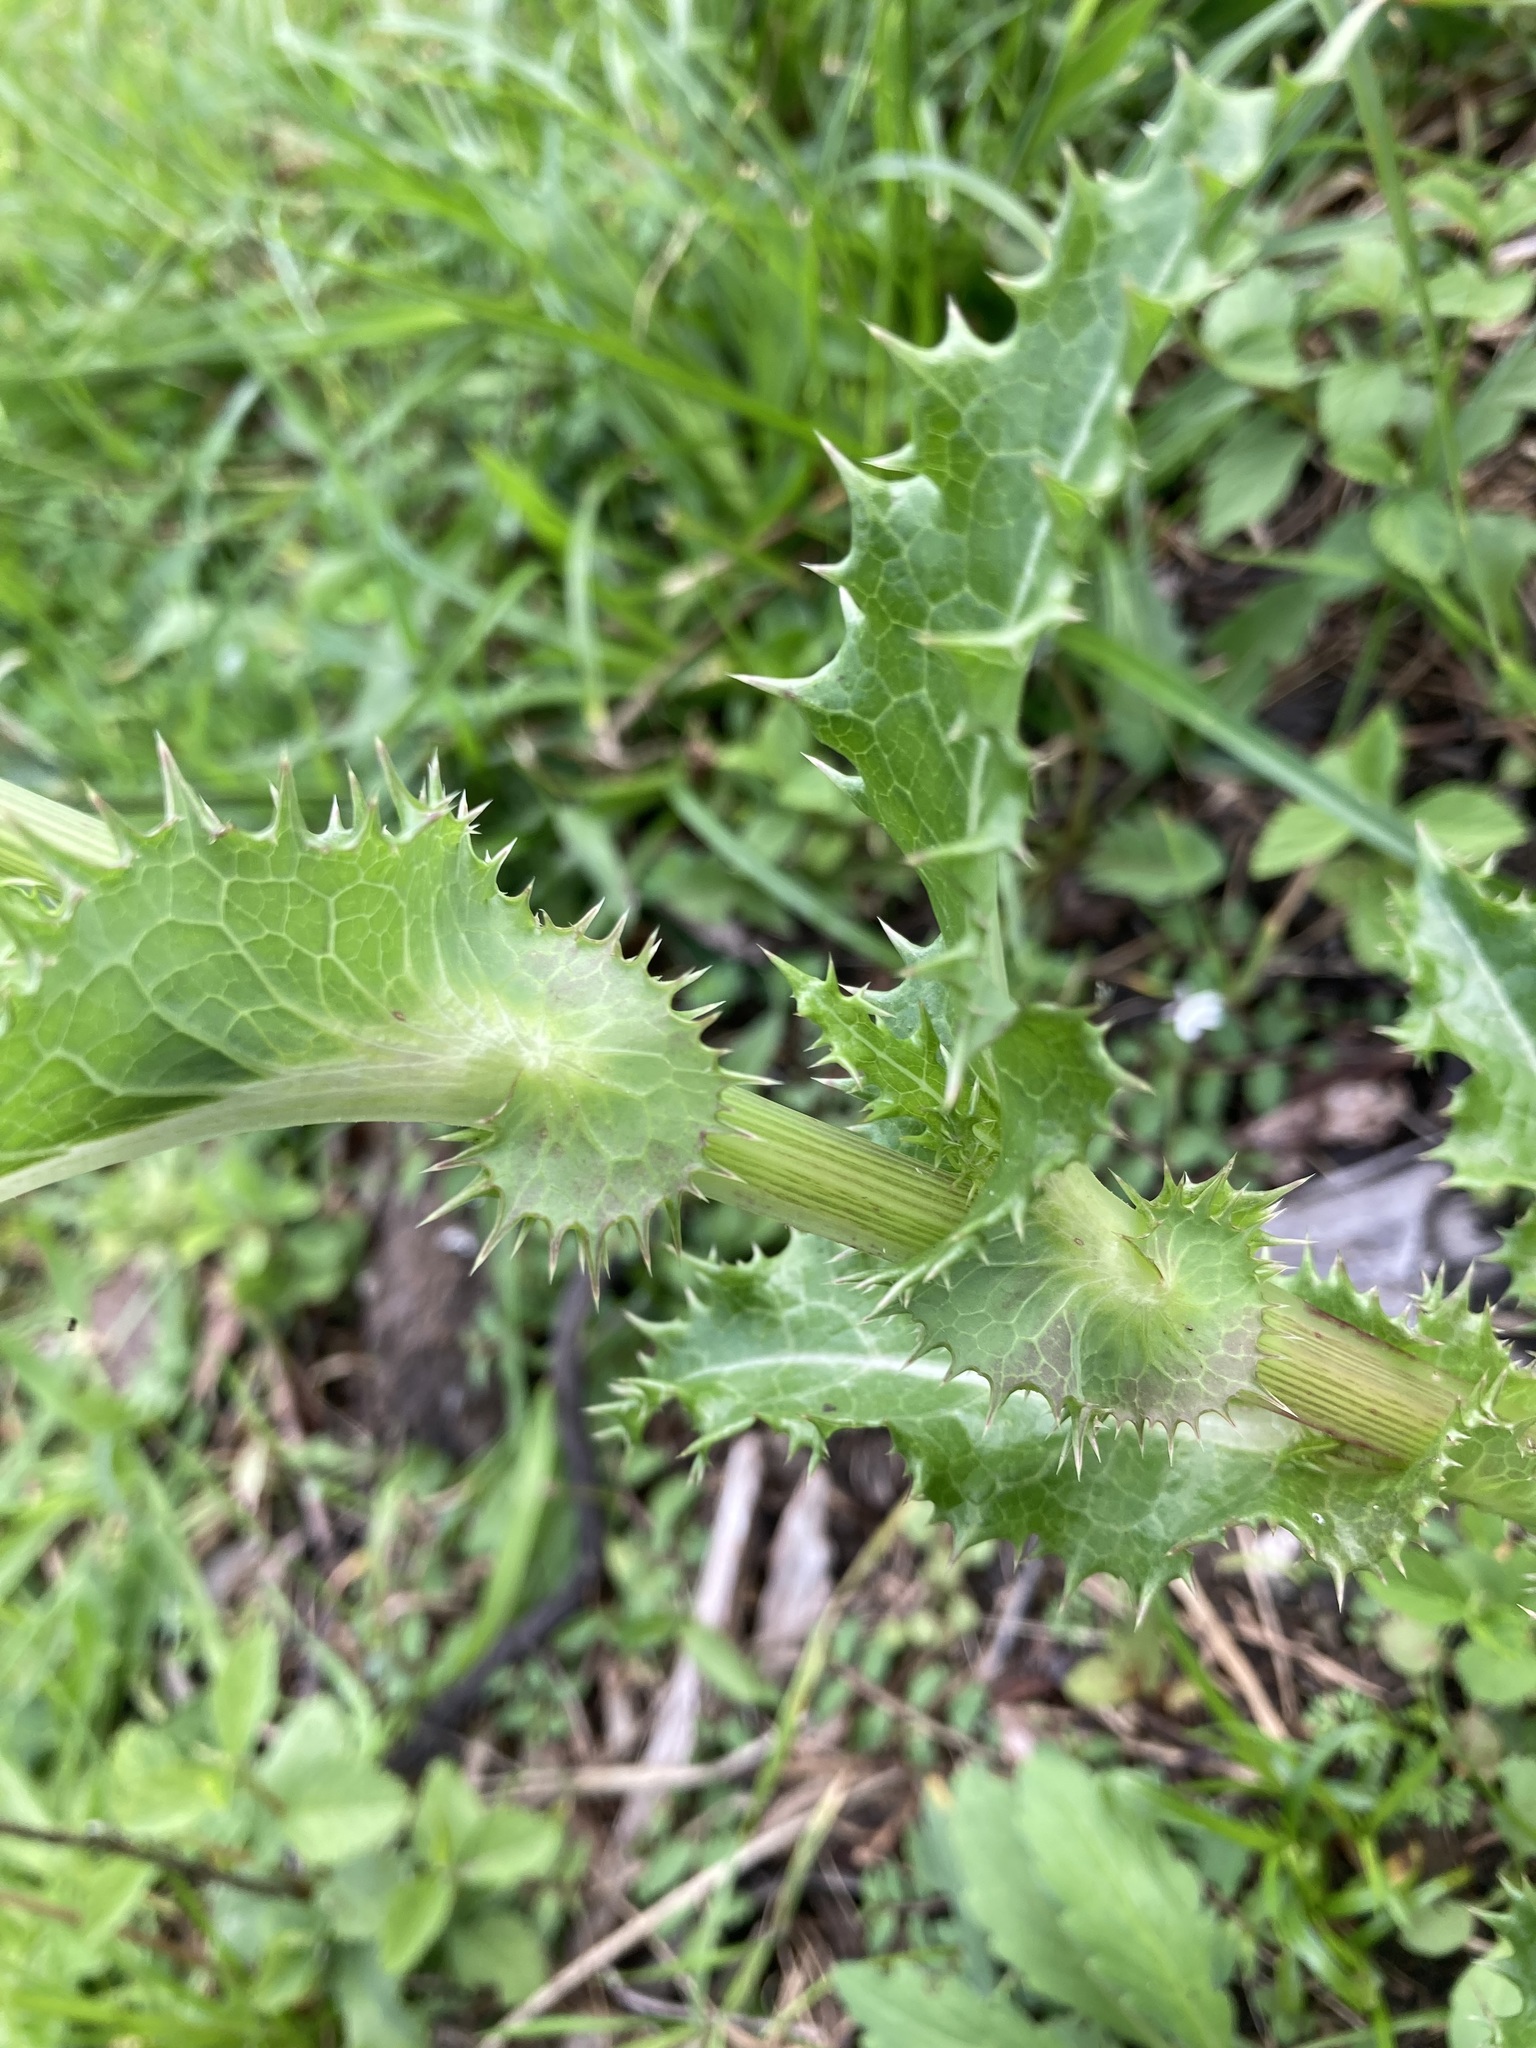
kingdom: Plantae
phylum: Tracheophyta
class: Magnoliopsida
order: Asterales
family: Asteraceae
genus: Sonchus
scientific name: Sonchus asper
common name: Prickly sow-thistle
